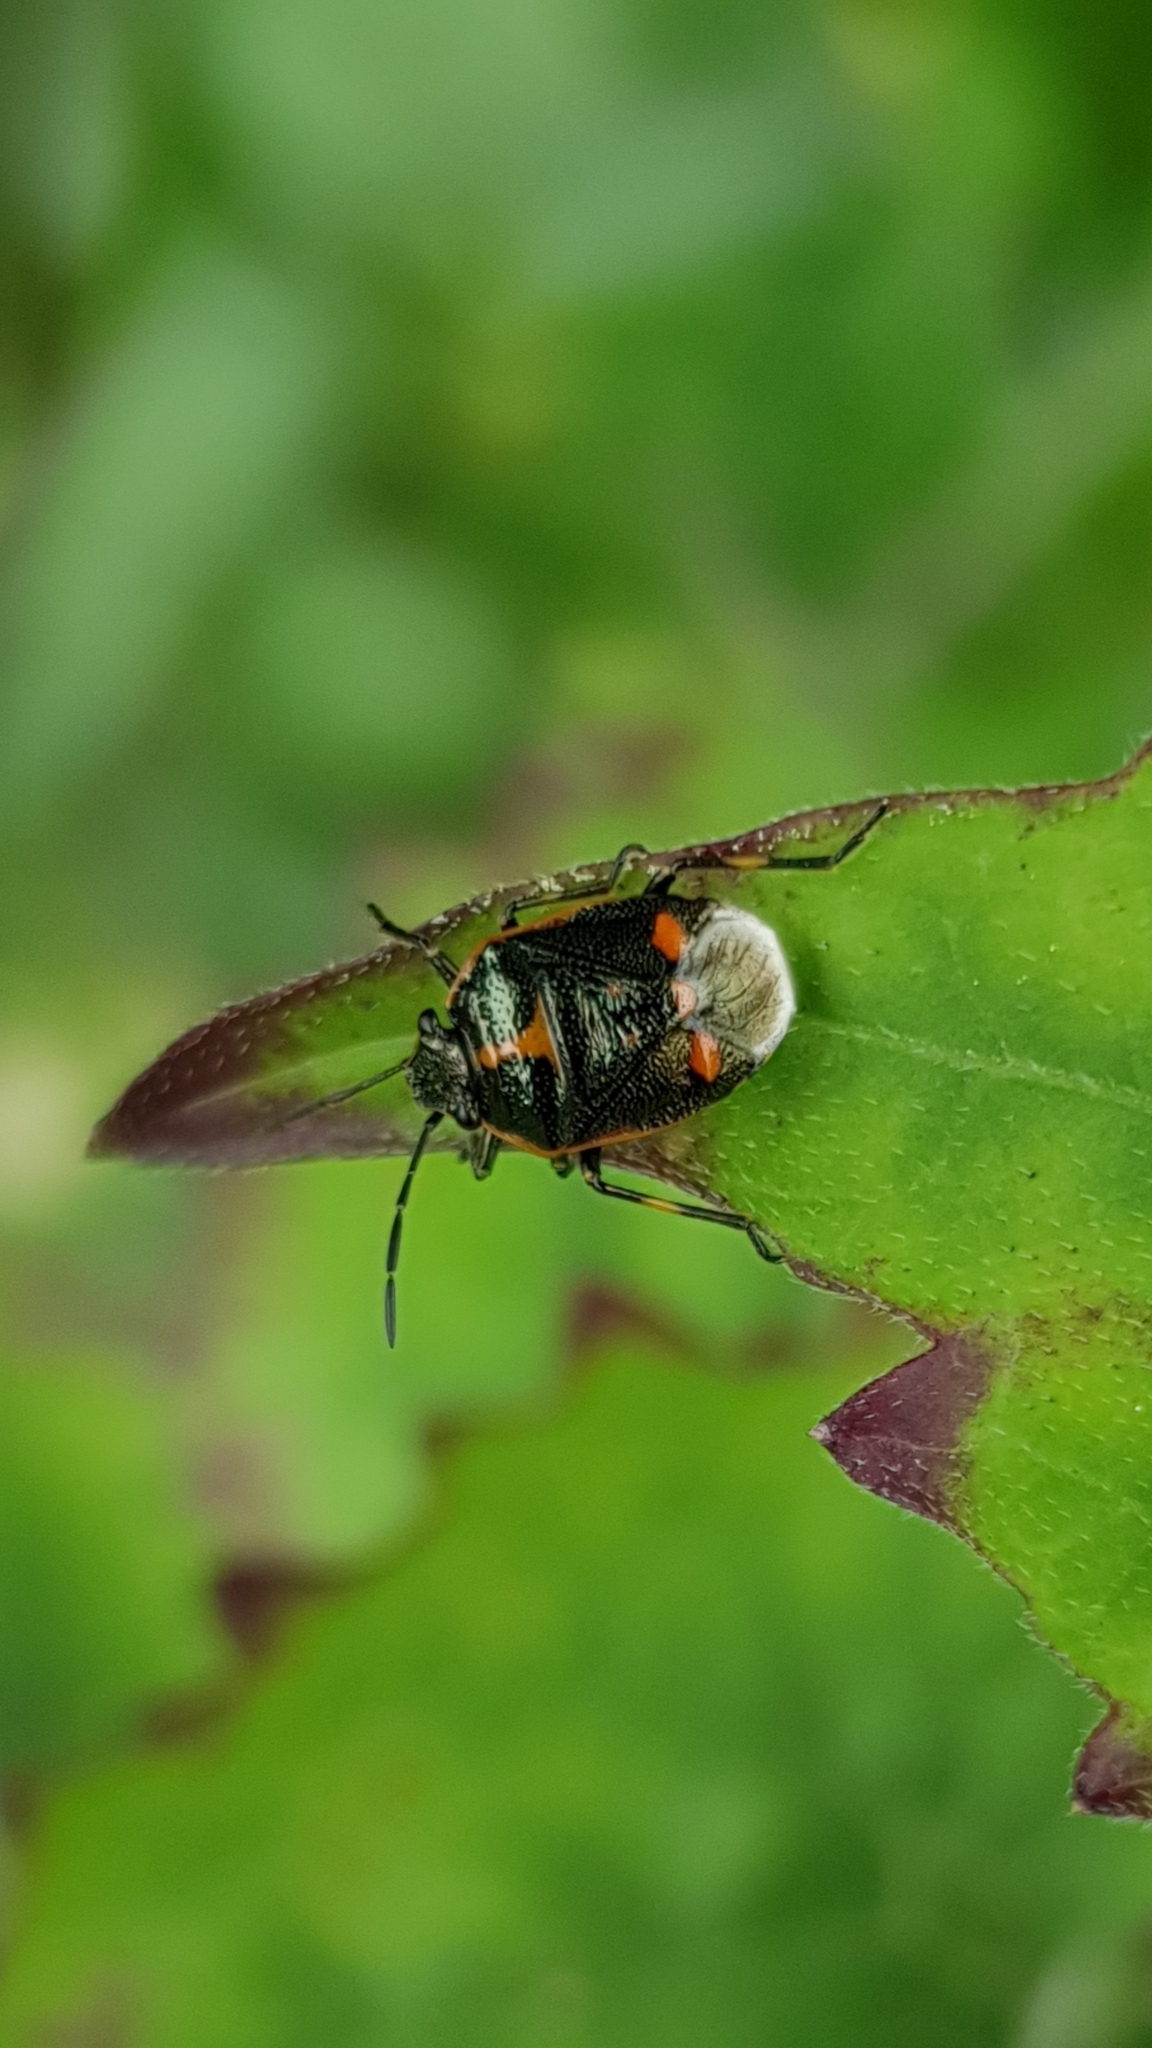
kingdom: Animalia
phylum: Arthropoda
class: Insecta
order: Hemiptera
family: Pentatomidae
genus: Eurydema
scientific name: Eurydema oleracea
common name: Cabbage bug
